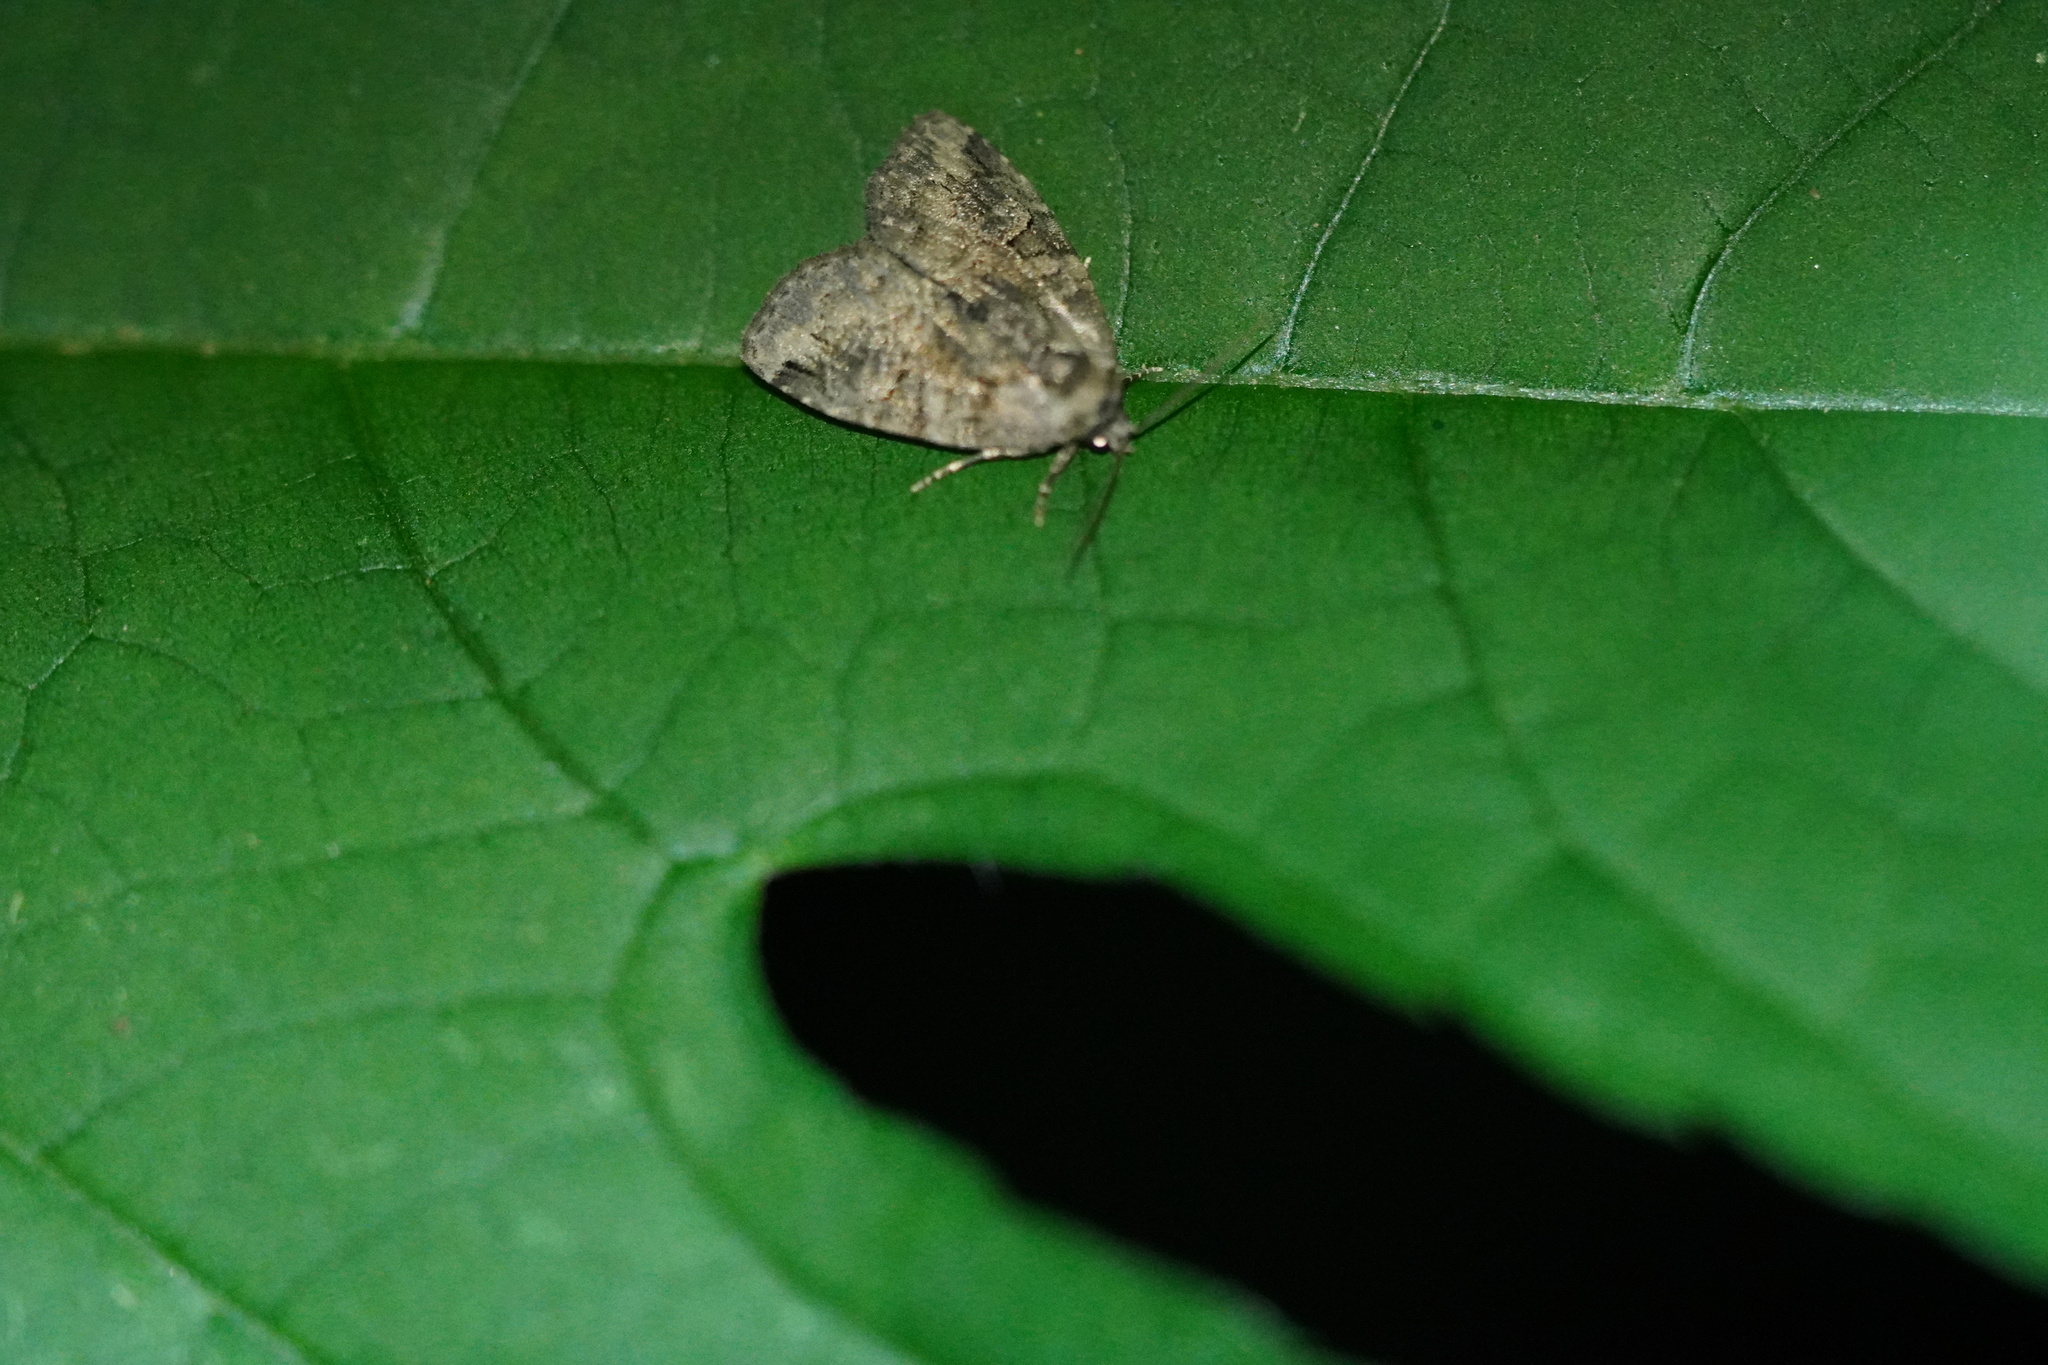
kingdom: Animalia
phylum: Arthropoda
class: Insecta
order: Lepidoptera
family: Noctuidae
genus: Pseudeustrotia
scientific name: Pseudeustrotia indeterminata
